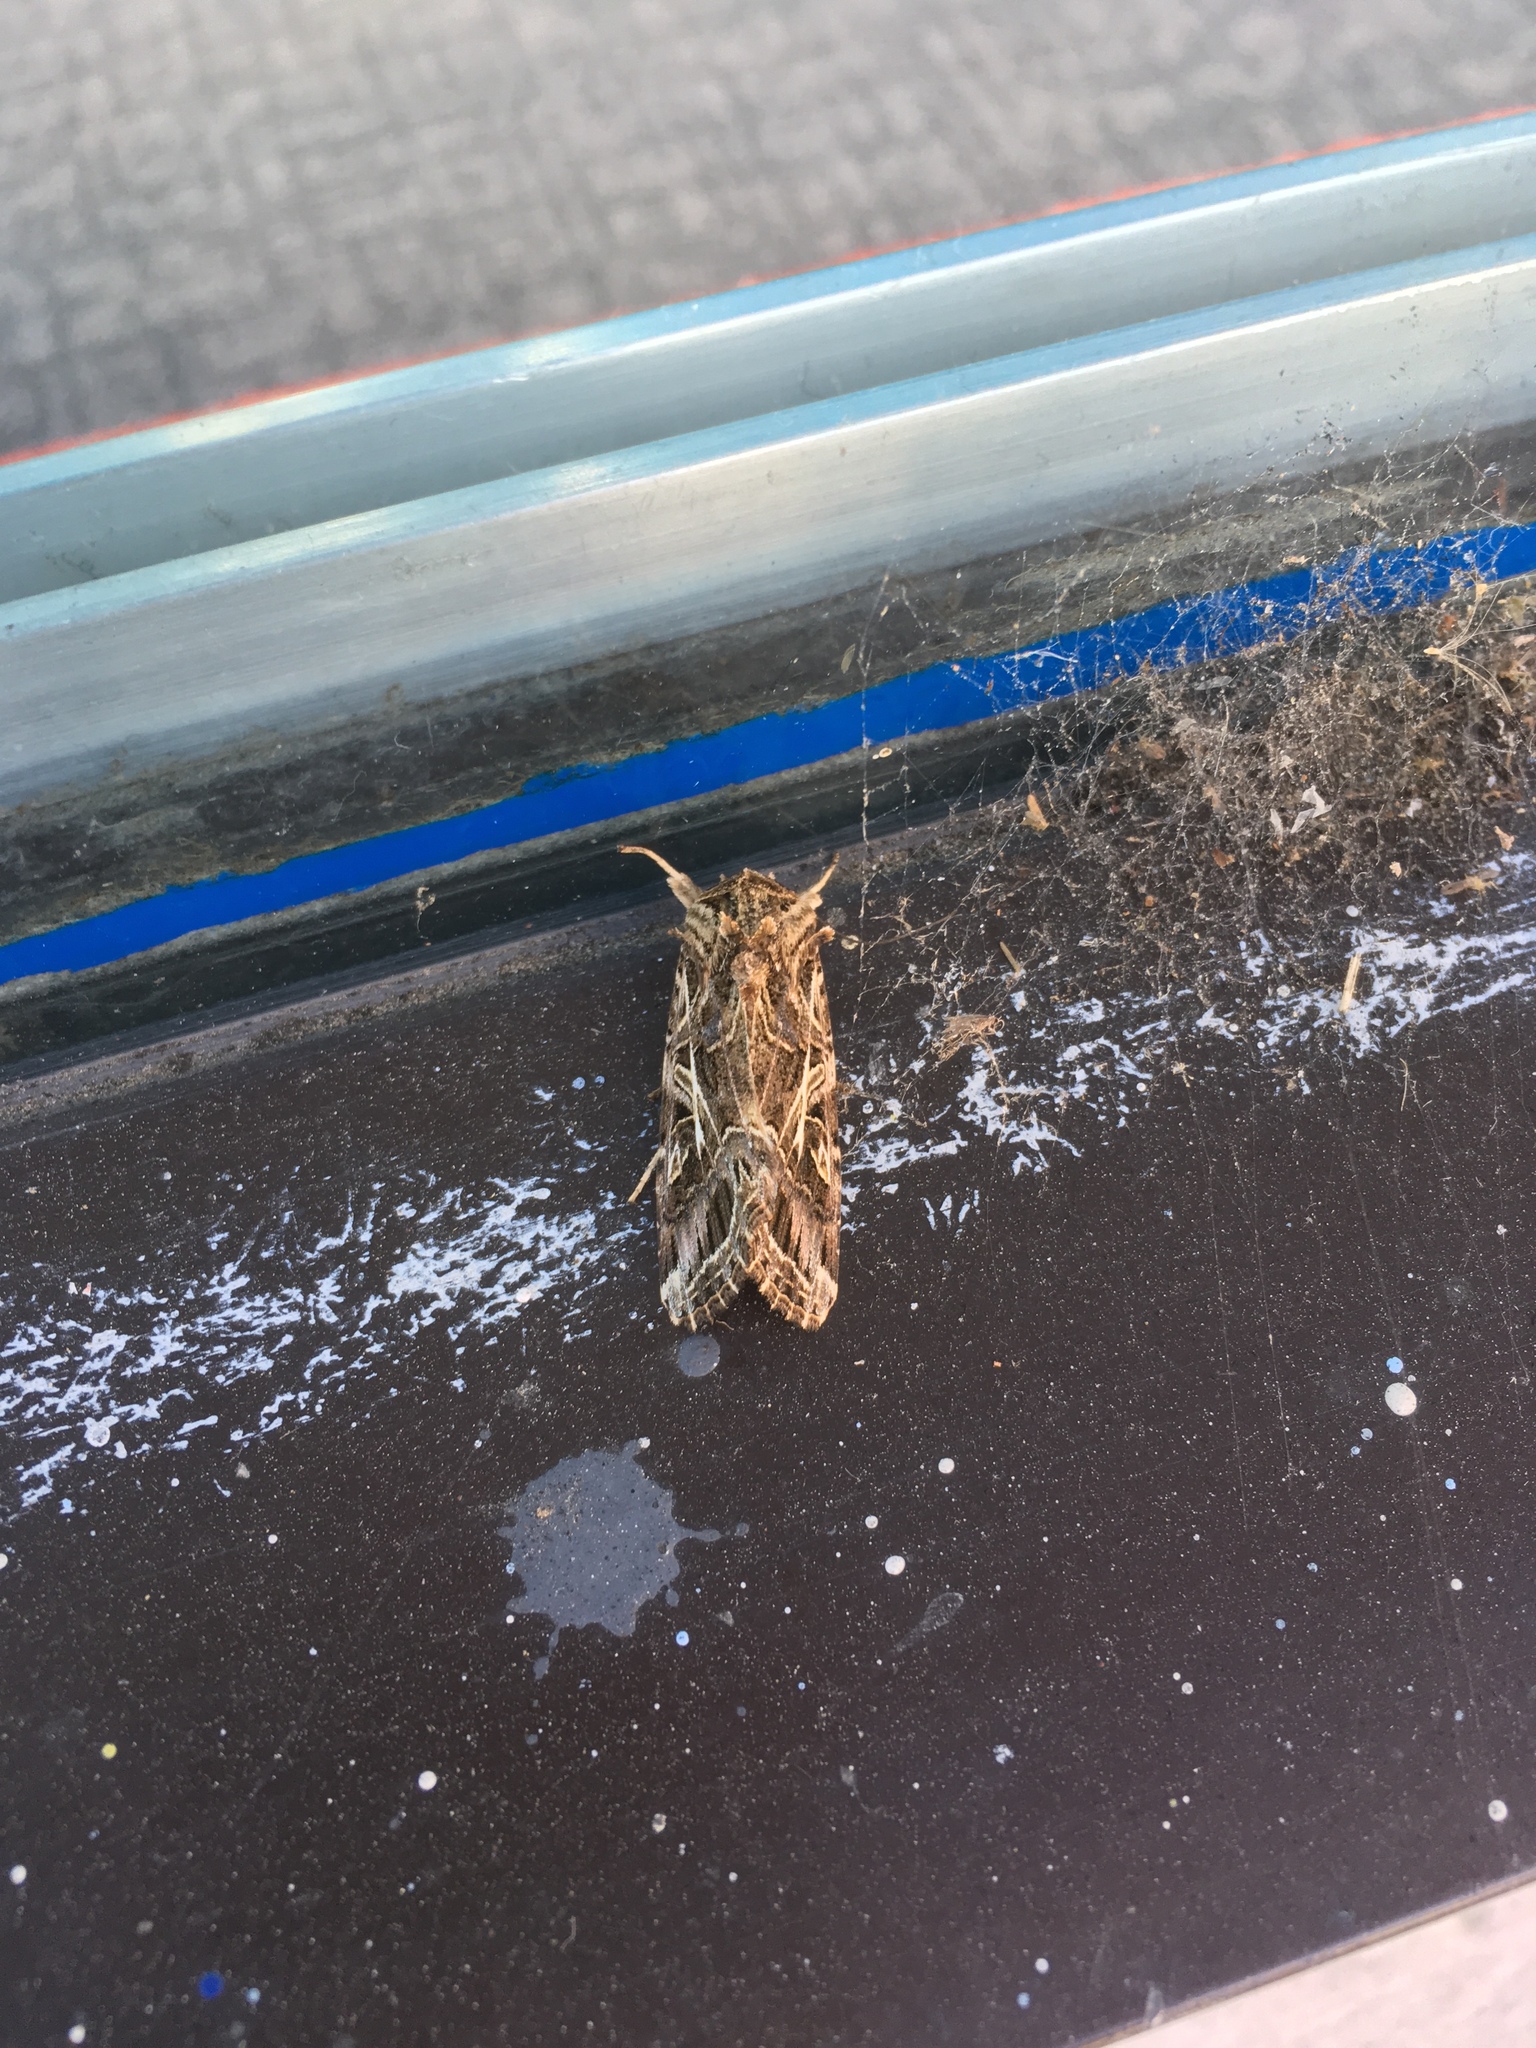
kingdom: Animalia
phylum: Arthropoda
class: Insecta
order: Lepidoptera
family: Noctuidae
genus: Spodoptera
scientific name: Spodoptera litura
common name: Asian cotton leafworm
